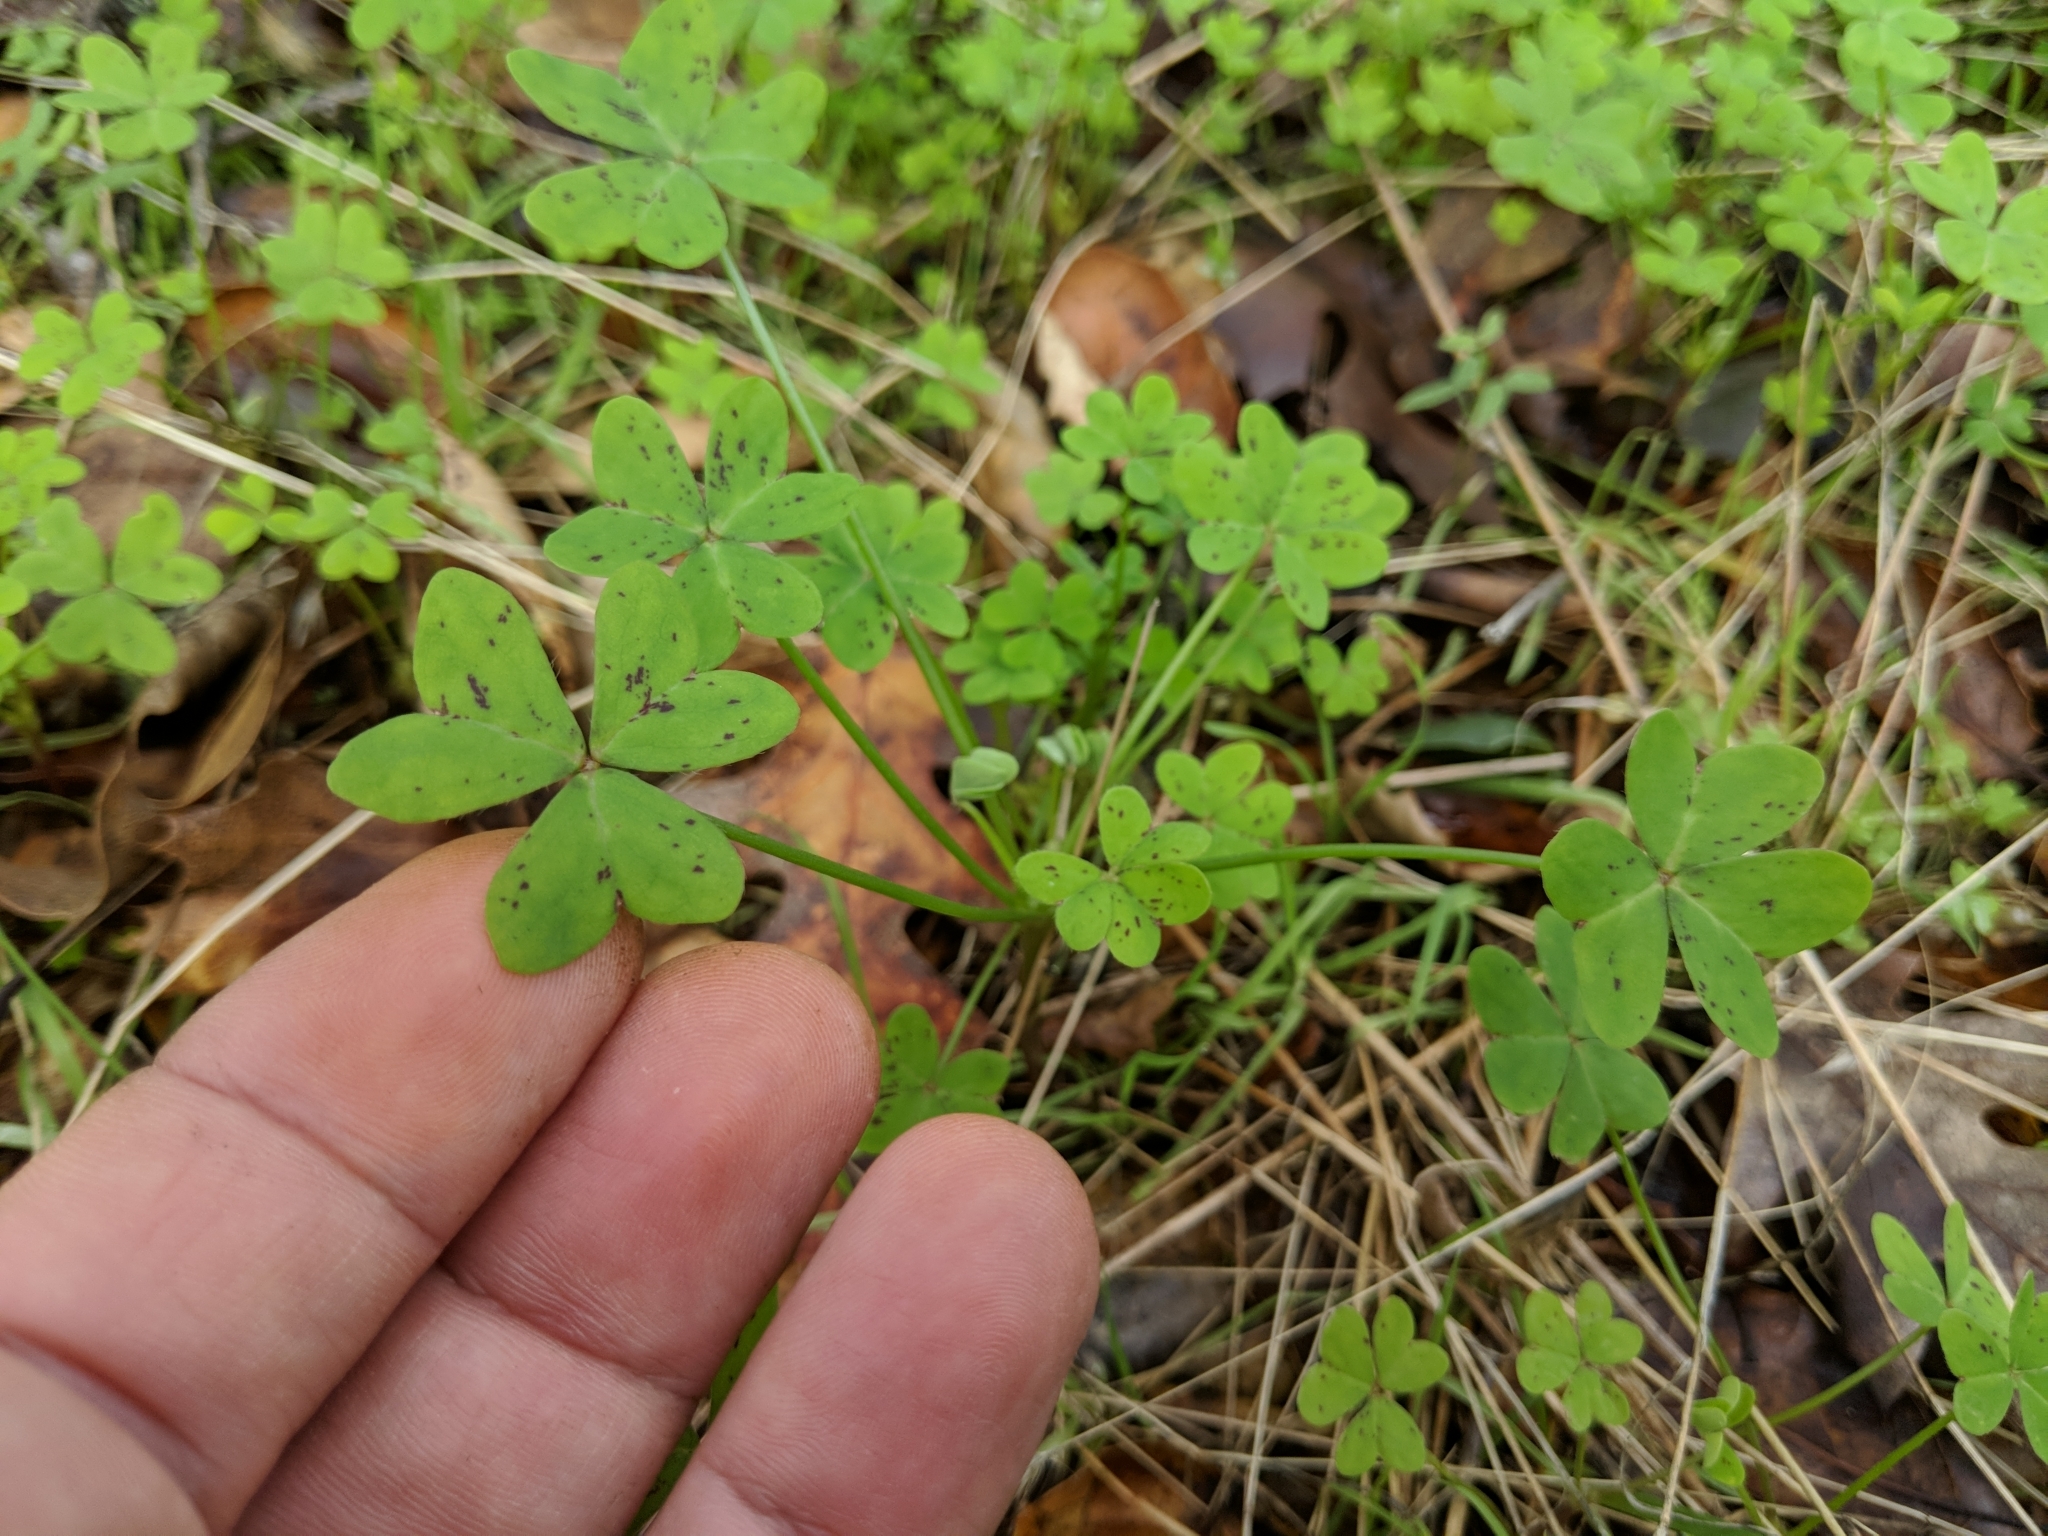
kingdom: Plantae
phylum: Tracheophyta
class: Magnoliopsida
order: Oxalidales
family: Oxalidaceae
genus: Oxalis
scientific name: Oxalis pes-caprae
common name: Bermuda-buttercup
